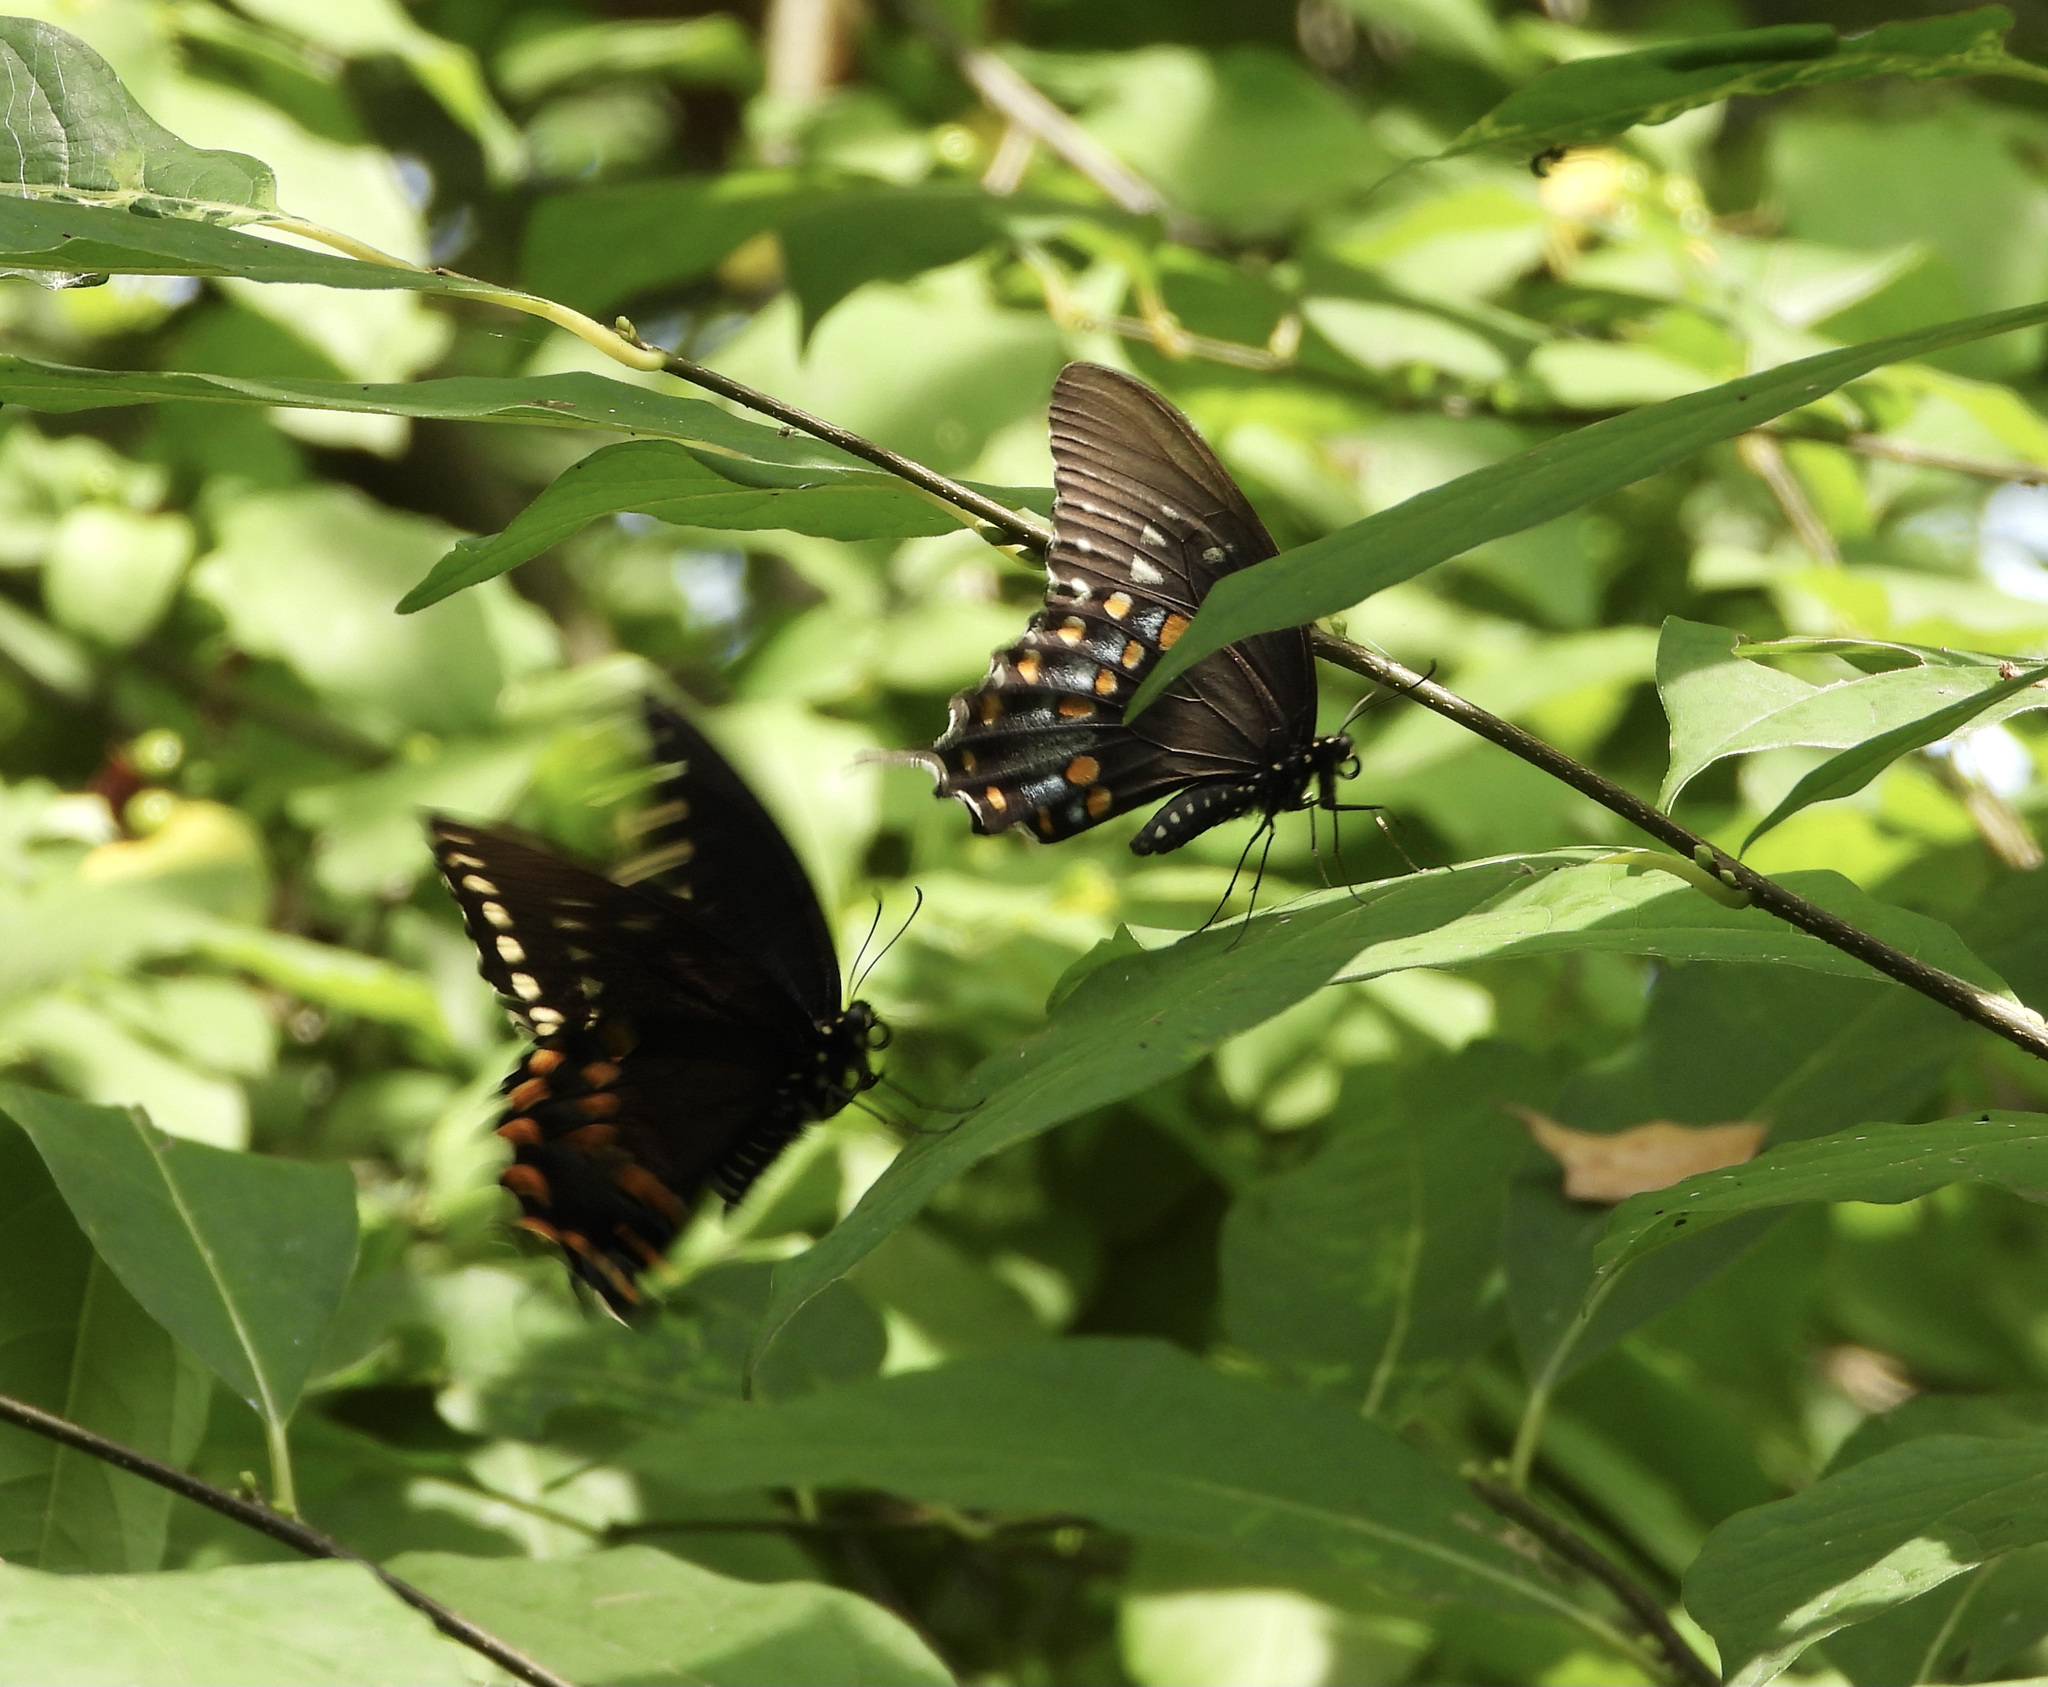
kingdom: Animalia
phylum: Arthropoda
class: Insecta
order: Lepidoptera
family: Papilionidae
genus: Papilio
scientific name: Papilio troilus
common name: Spicebush swallowtail
